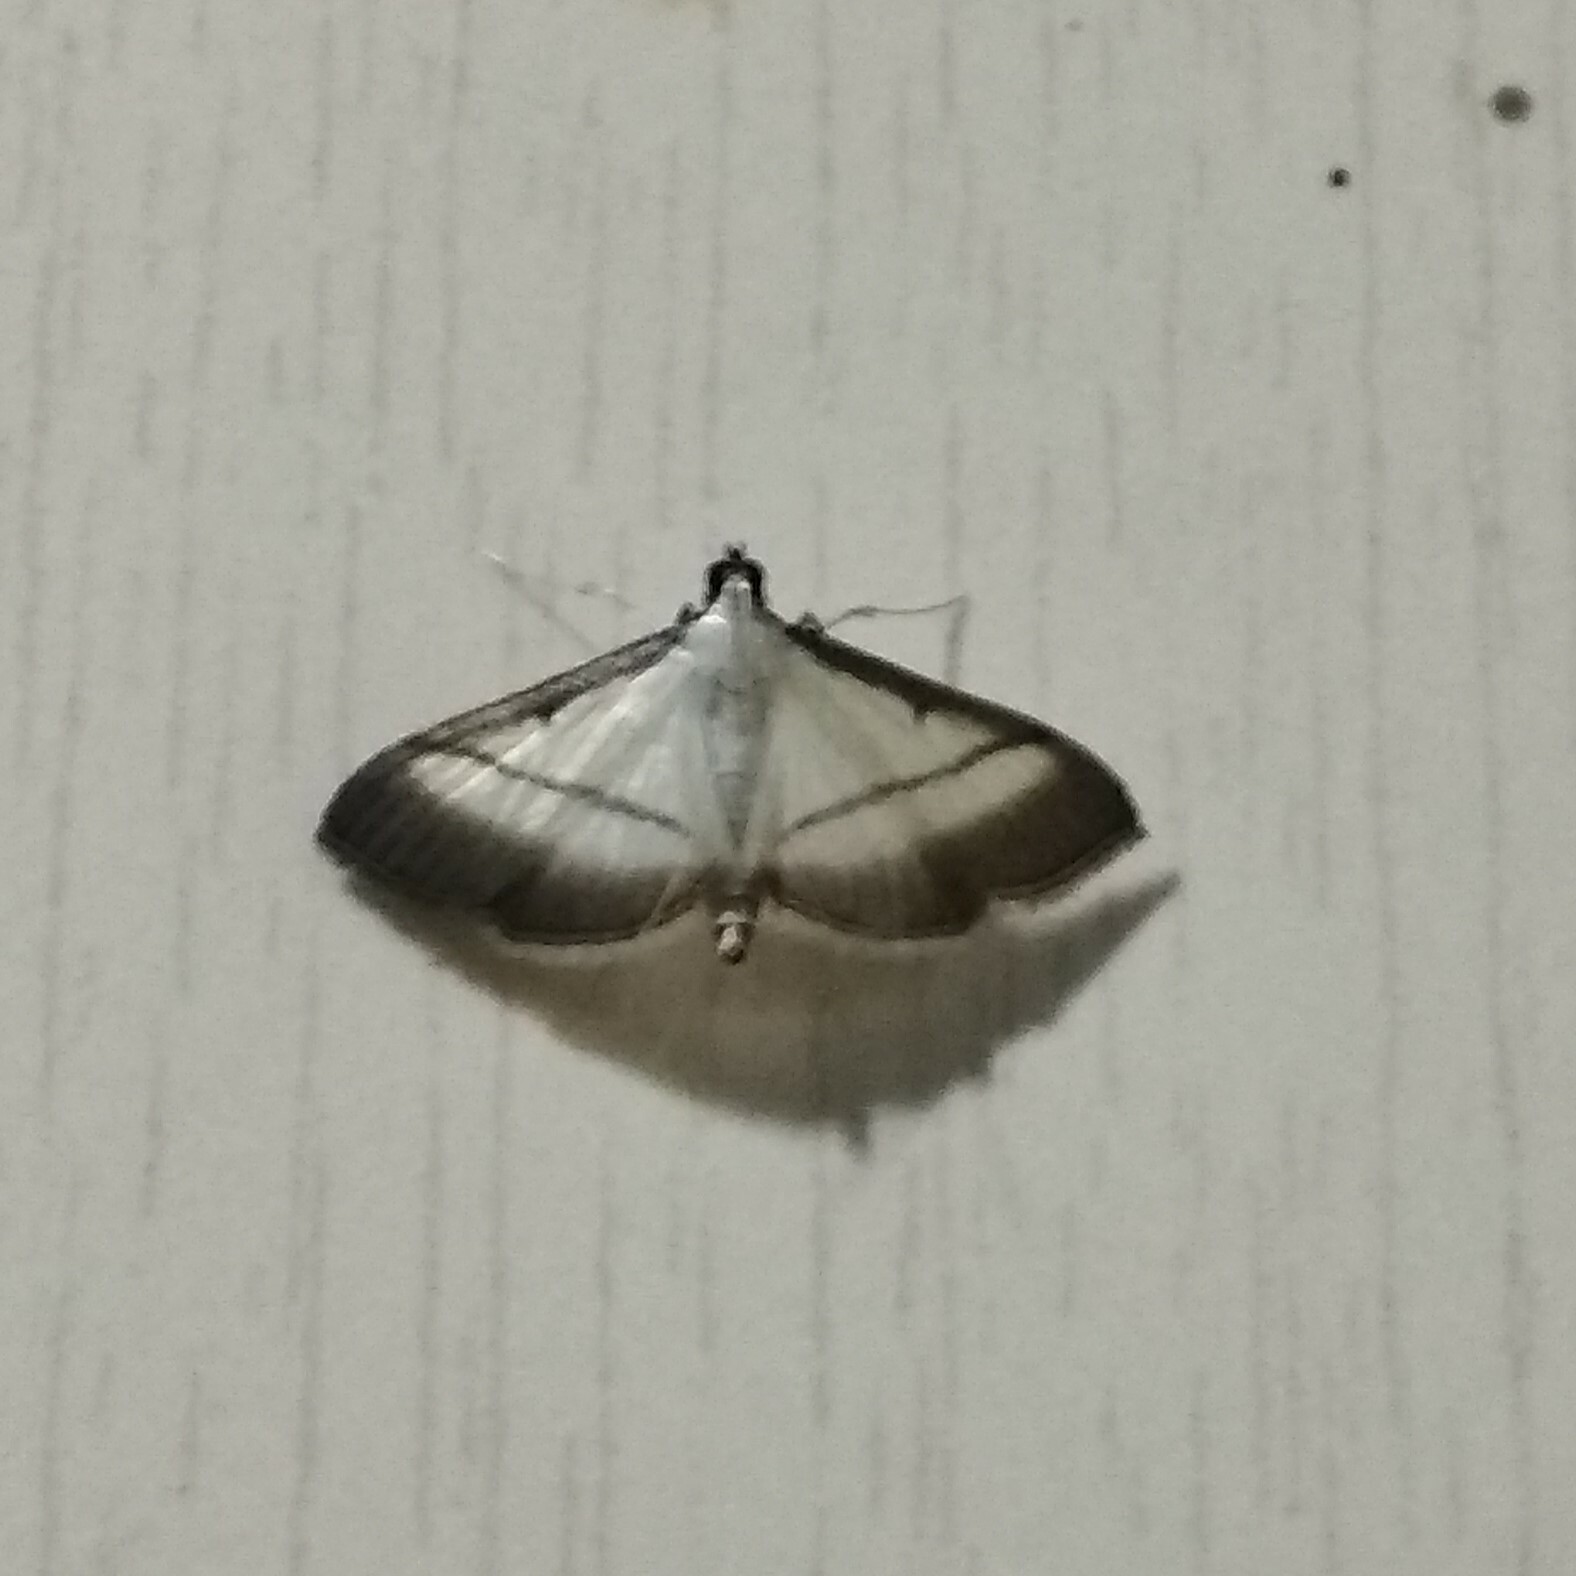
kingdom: Animalia
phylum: Arthropoda
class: Insecta
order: Lepidoptera
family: Crambidae
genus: Bradina
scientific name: Bradina diagonalis
